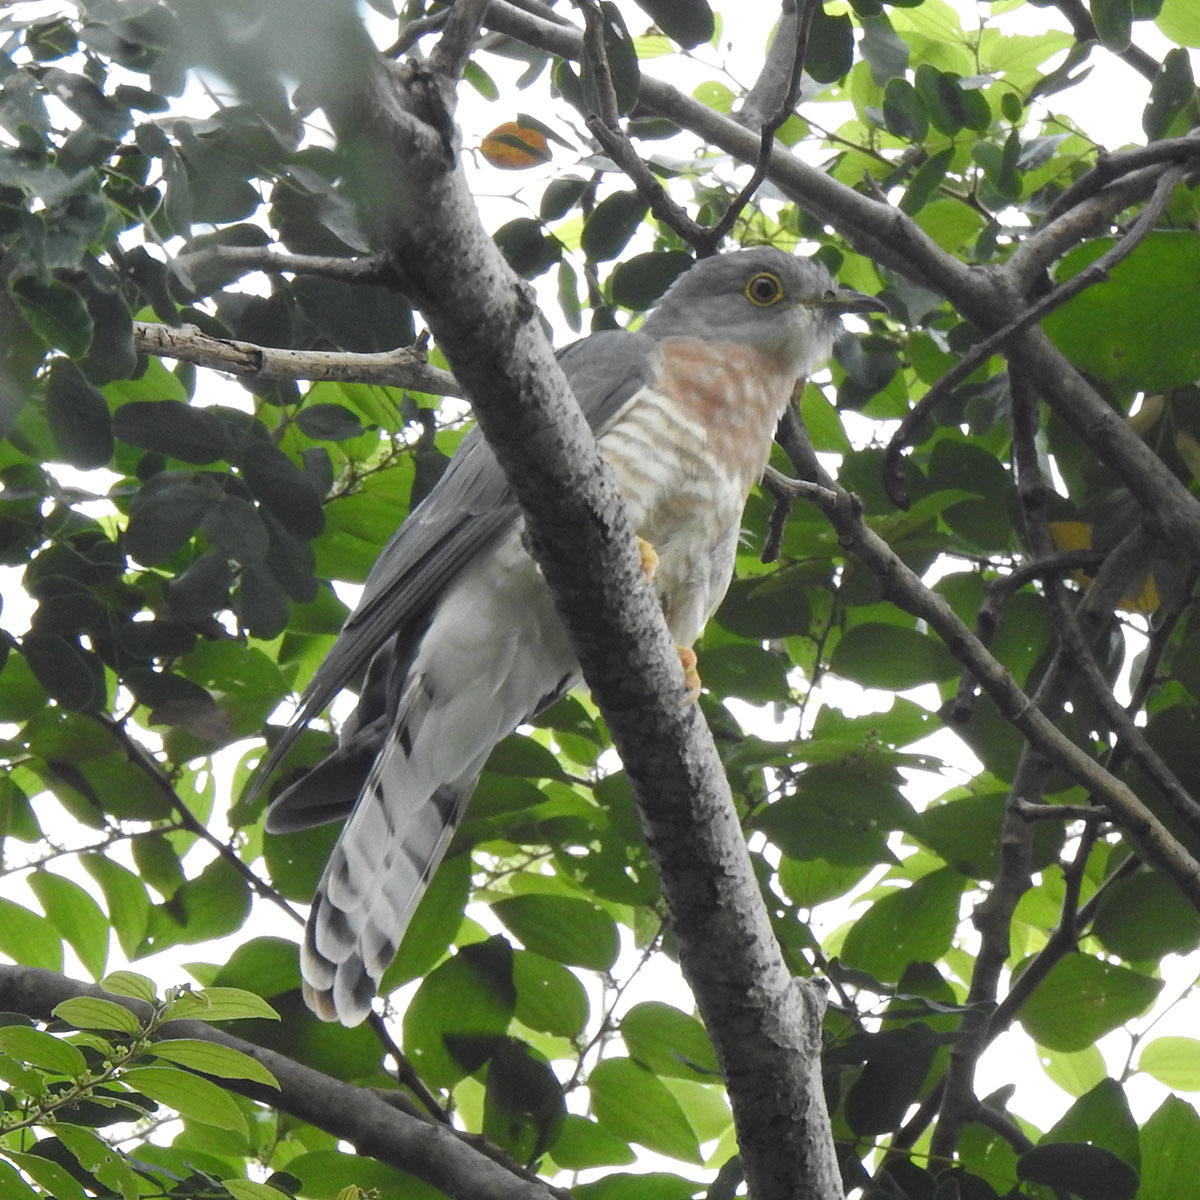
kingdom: Animalia
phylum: Chordata
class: Aves
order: Cuculiformes
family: Cuculidae
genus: Cuculus
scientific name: Cuculus varius
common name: Common hawk cuckoo
